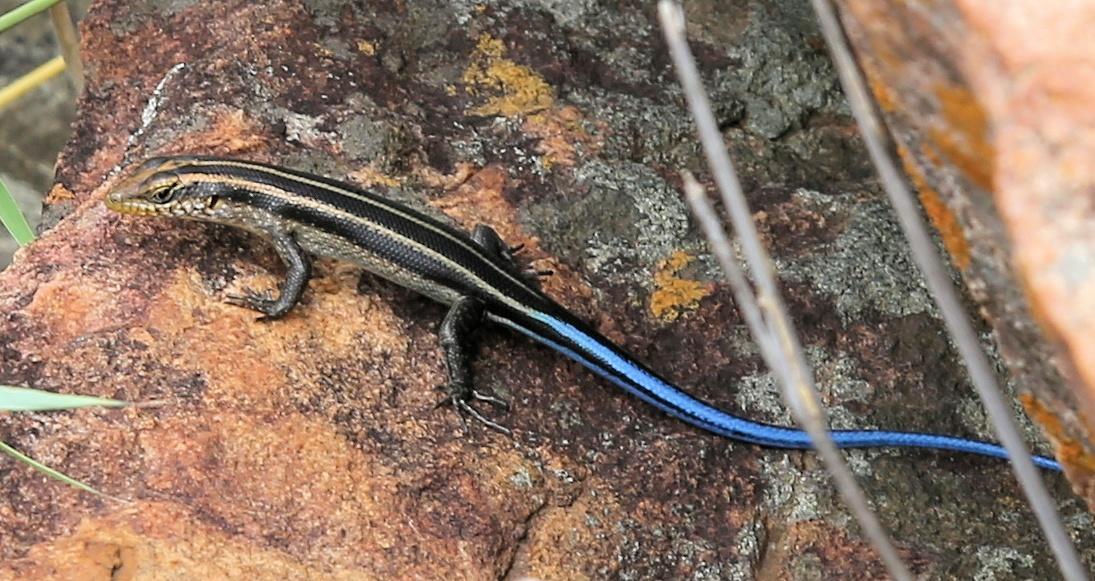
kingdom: Animalia
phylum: Chordata
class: Squamata
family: Scincidae
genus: Trachylepis
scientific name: Trachylepis margaritifera
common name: Rainbow skink
